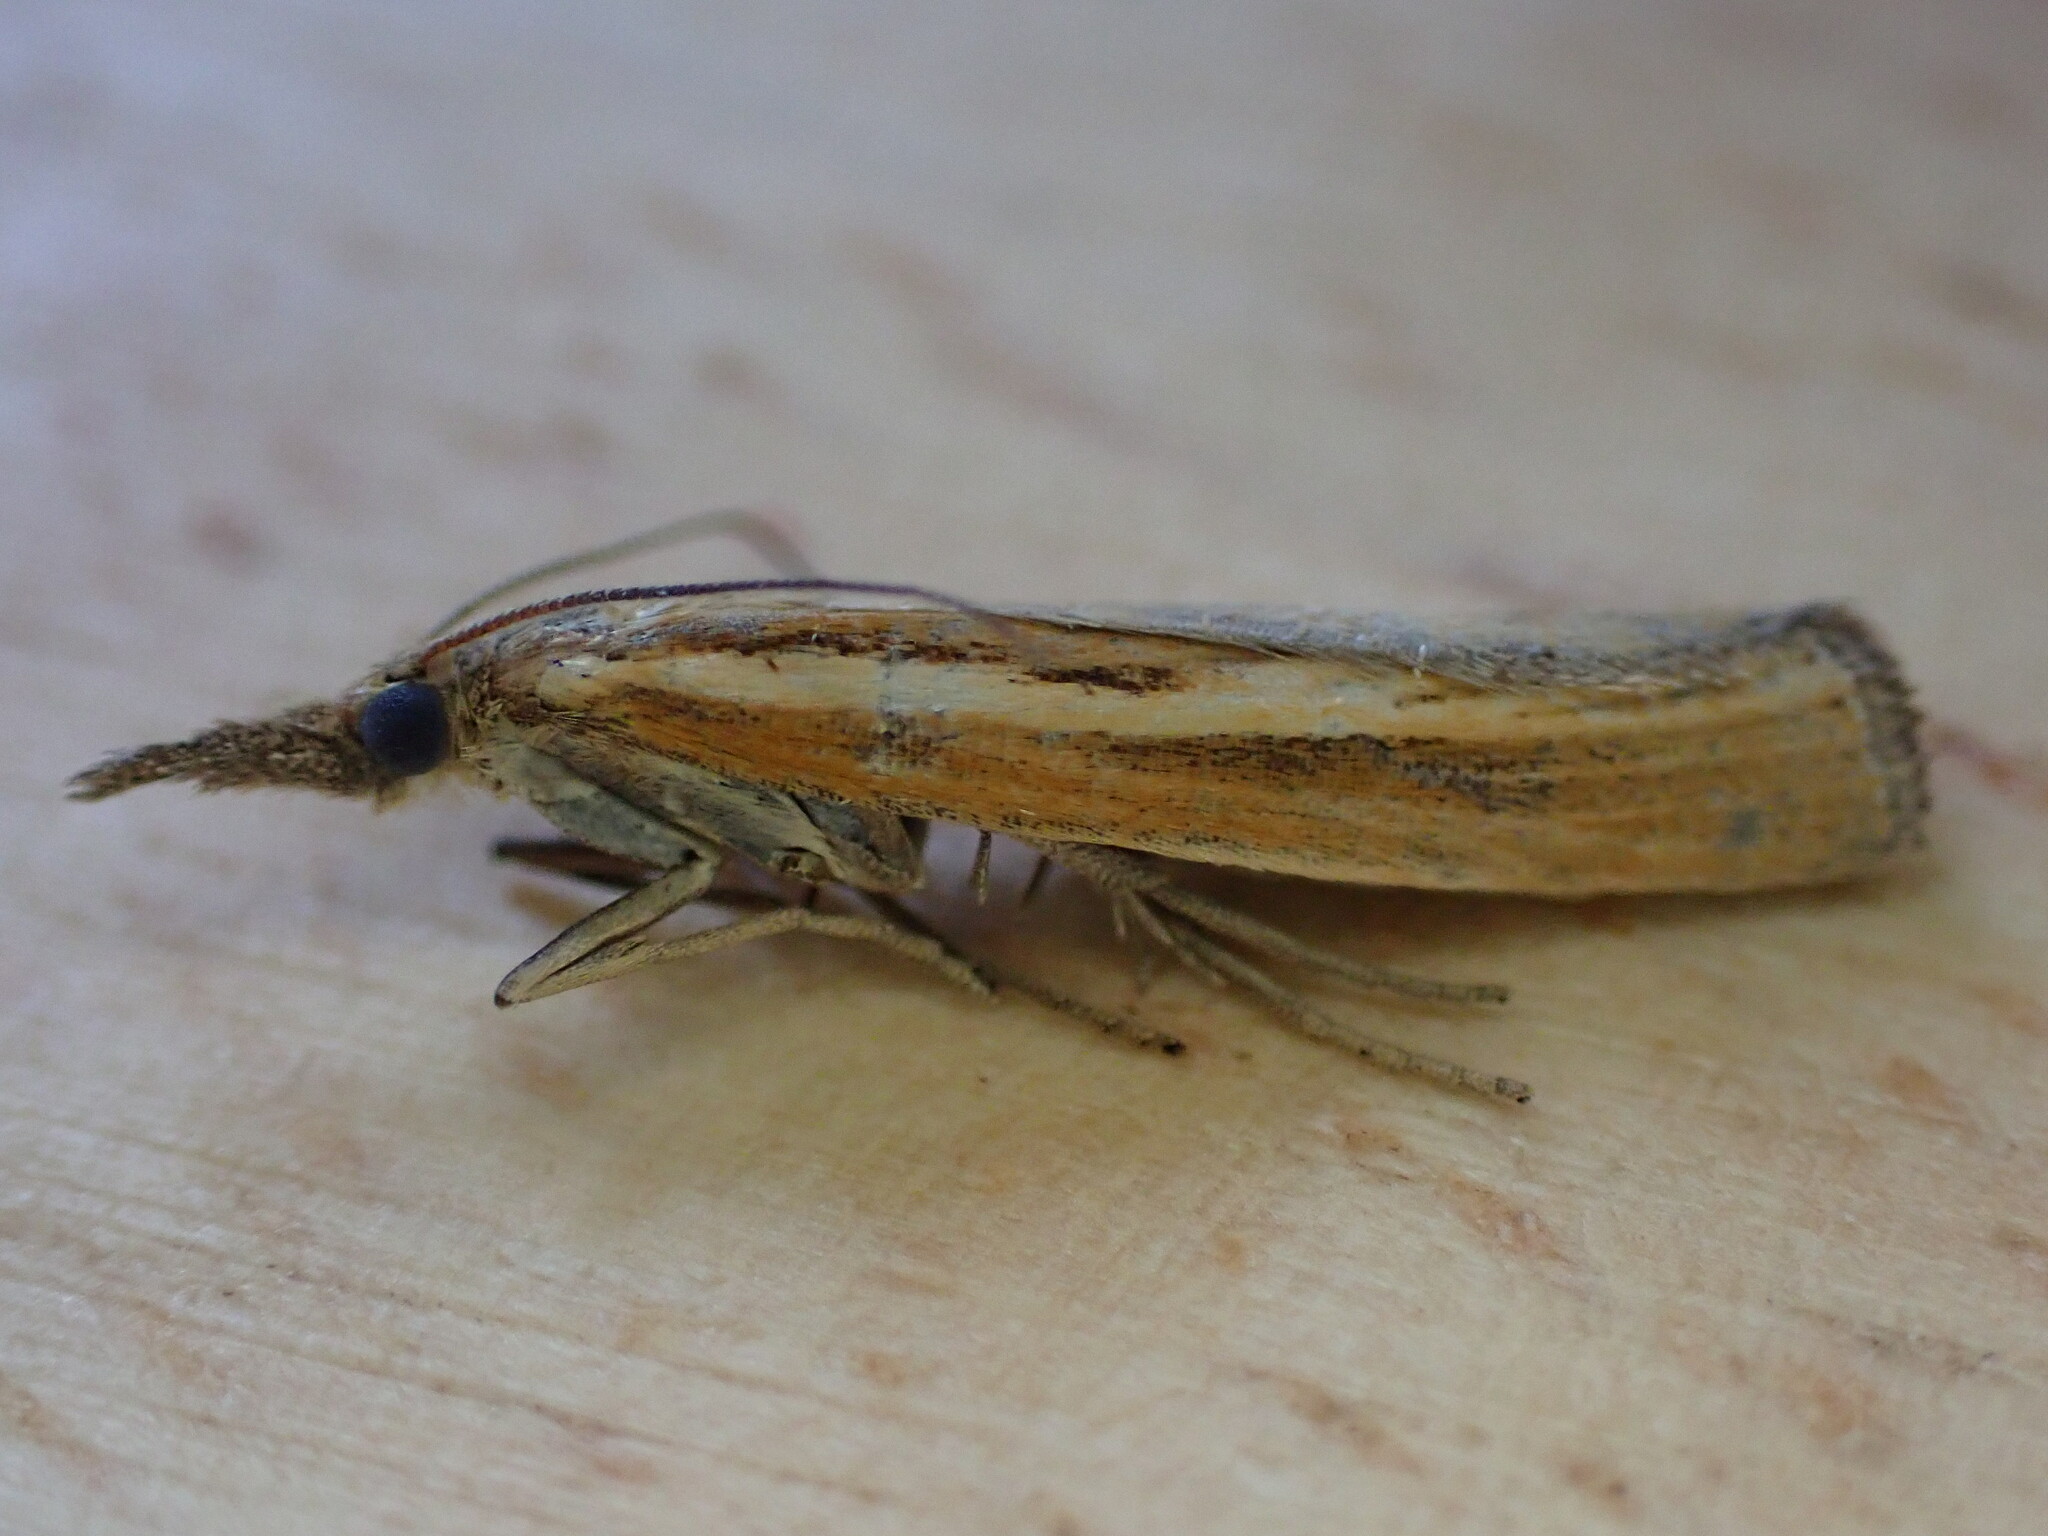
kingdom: Animalia
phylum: Arthropoda
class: Insecta
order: Lepidoptera
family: Crambidae
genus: Agriphila
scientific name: Agriphila tristellus
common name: Common grass-veneer
